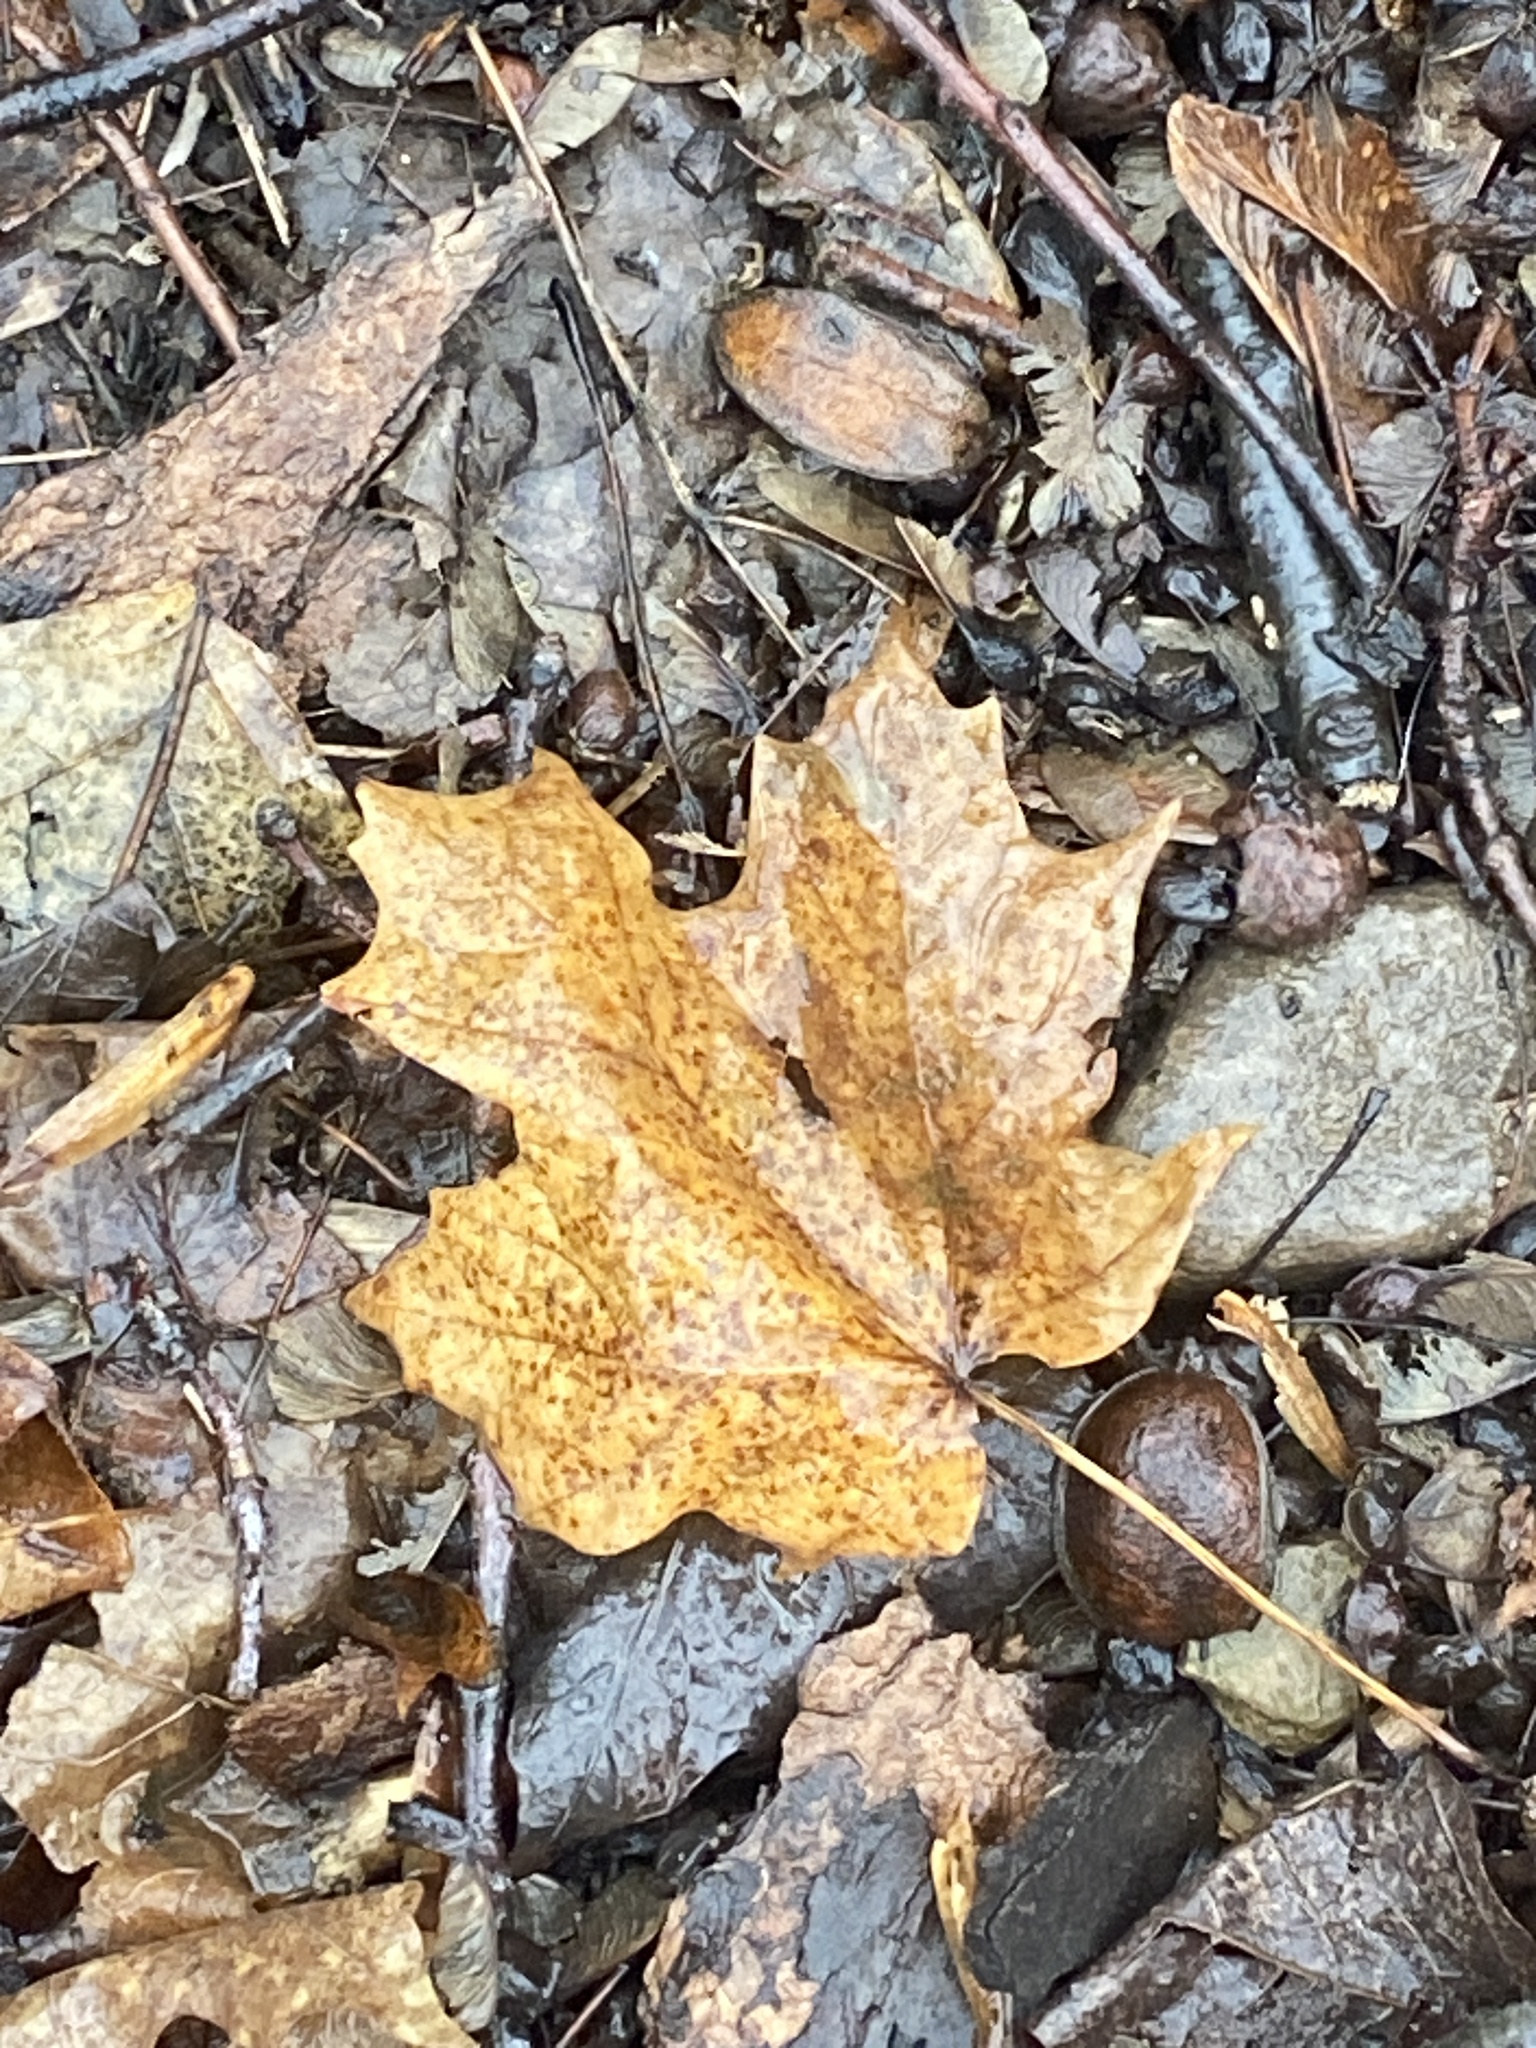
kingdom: Plantae
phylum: Tracheophyta
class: Magnoliopsida
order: Sapindales
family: Sapindaceae
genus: Acer
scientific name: Acer saccharum
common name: Sugar maple
